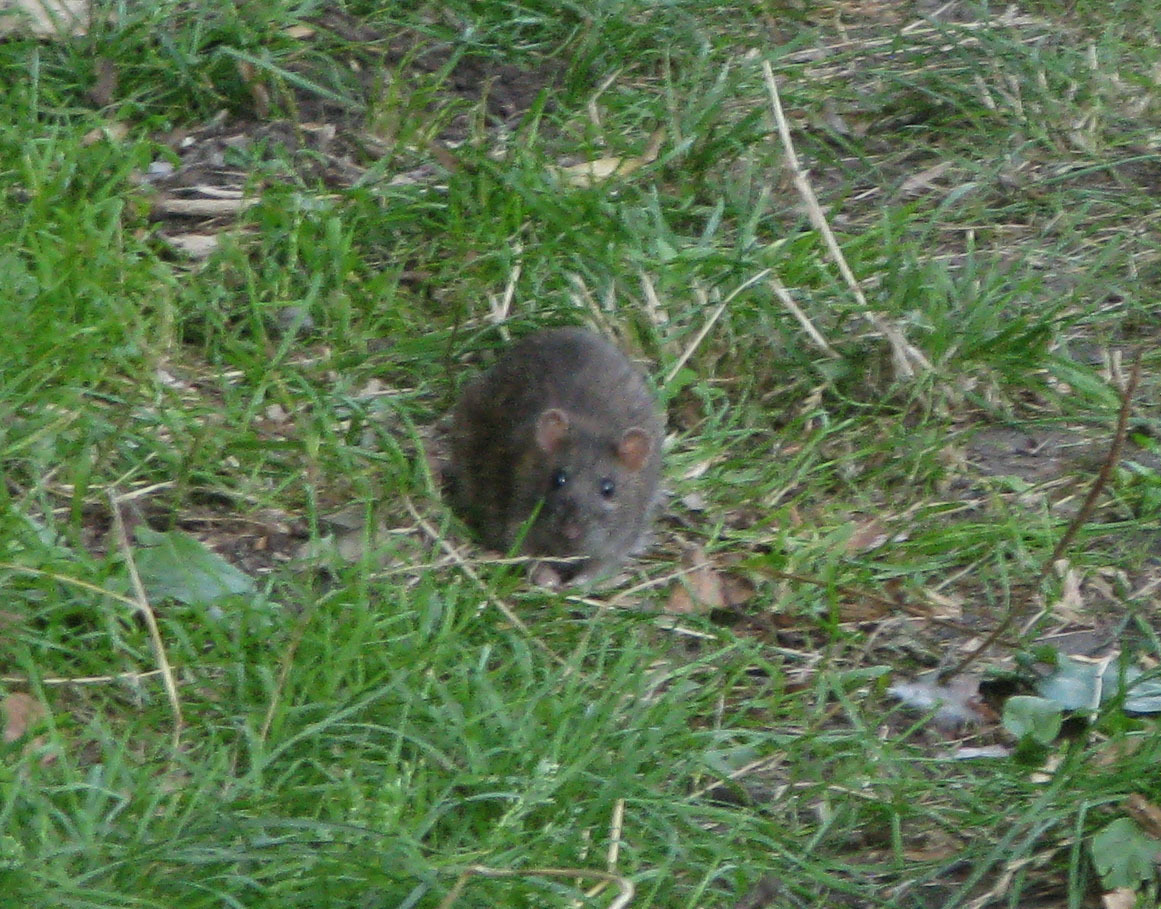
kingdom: Animalia
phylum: Chordata
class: Mammalia
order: Rodentia
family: Muridae
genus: Rattus
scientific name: Rattus norvegicus
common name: Brown rat
